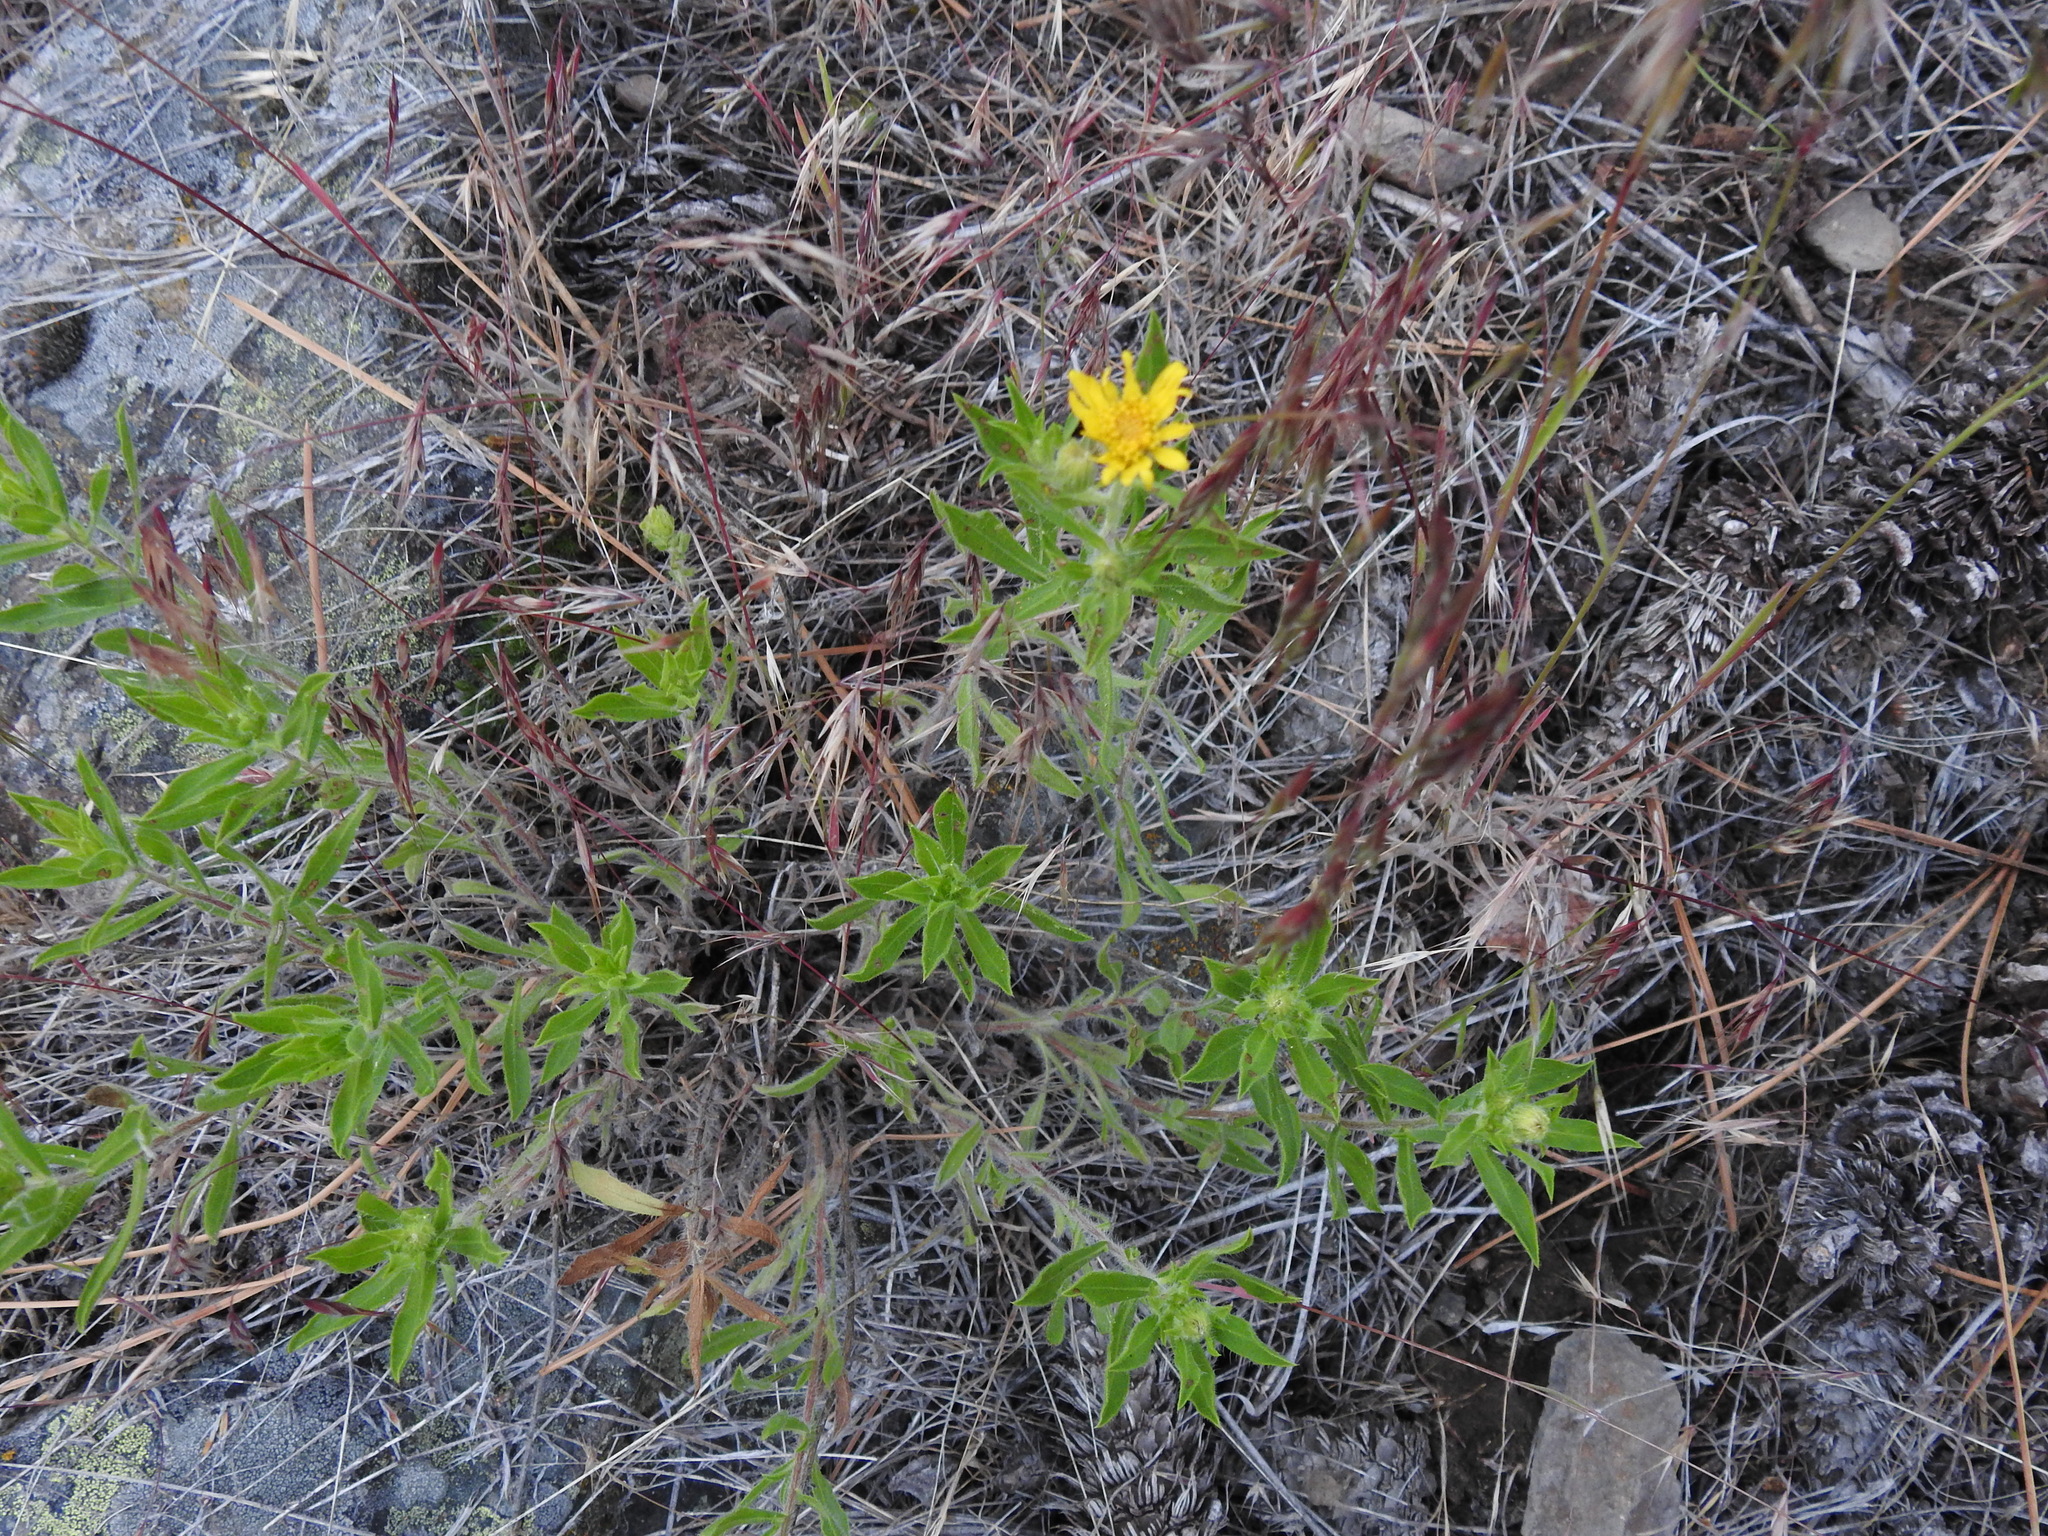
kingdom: Plantae
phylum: Tracheophyta
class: Magnoliopsida
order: Asterales
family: Asteraceae
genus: Heterotheca
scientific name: Heterotheca villosa
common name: Hairy false goldenaster
